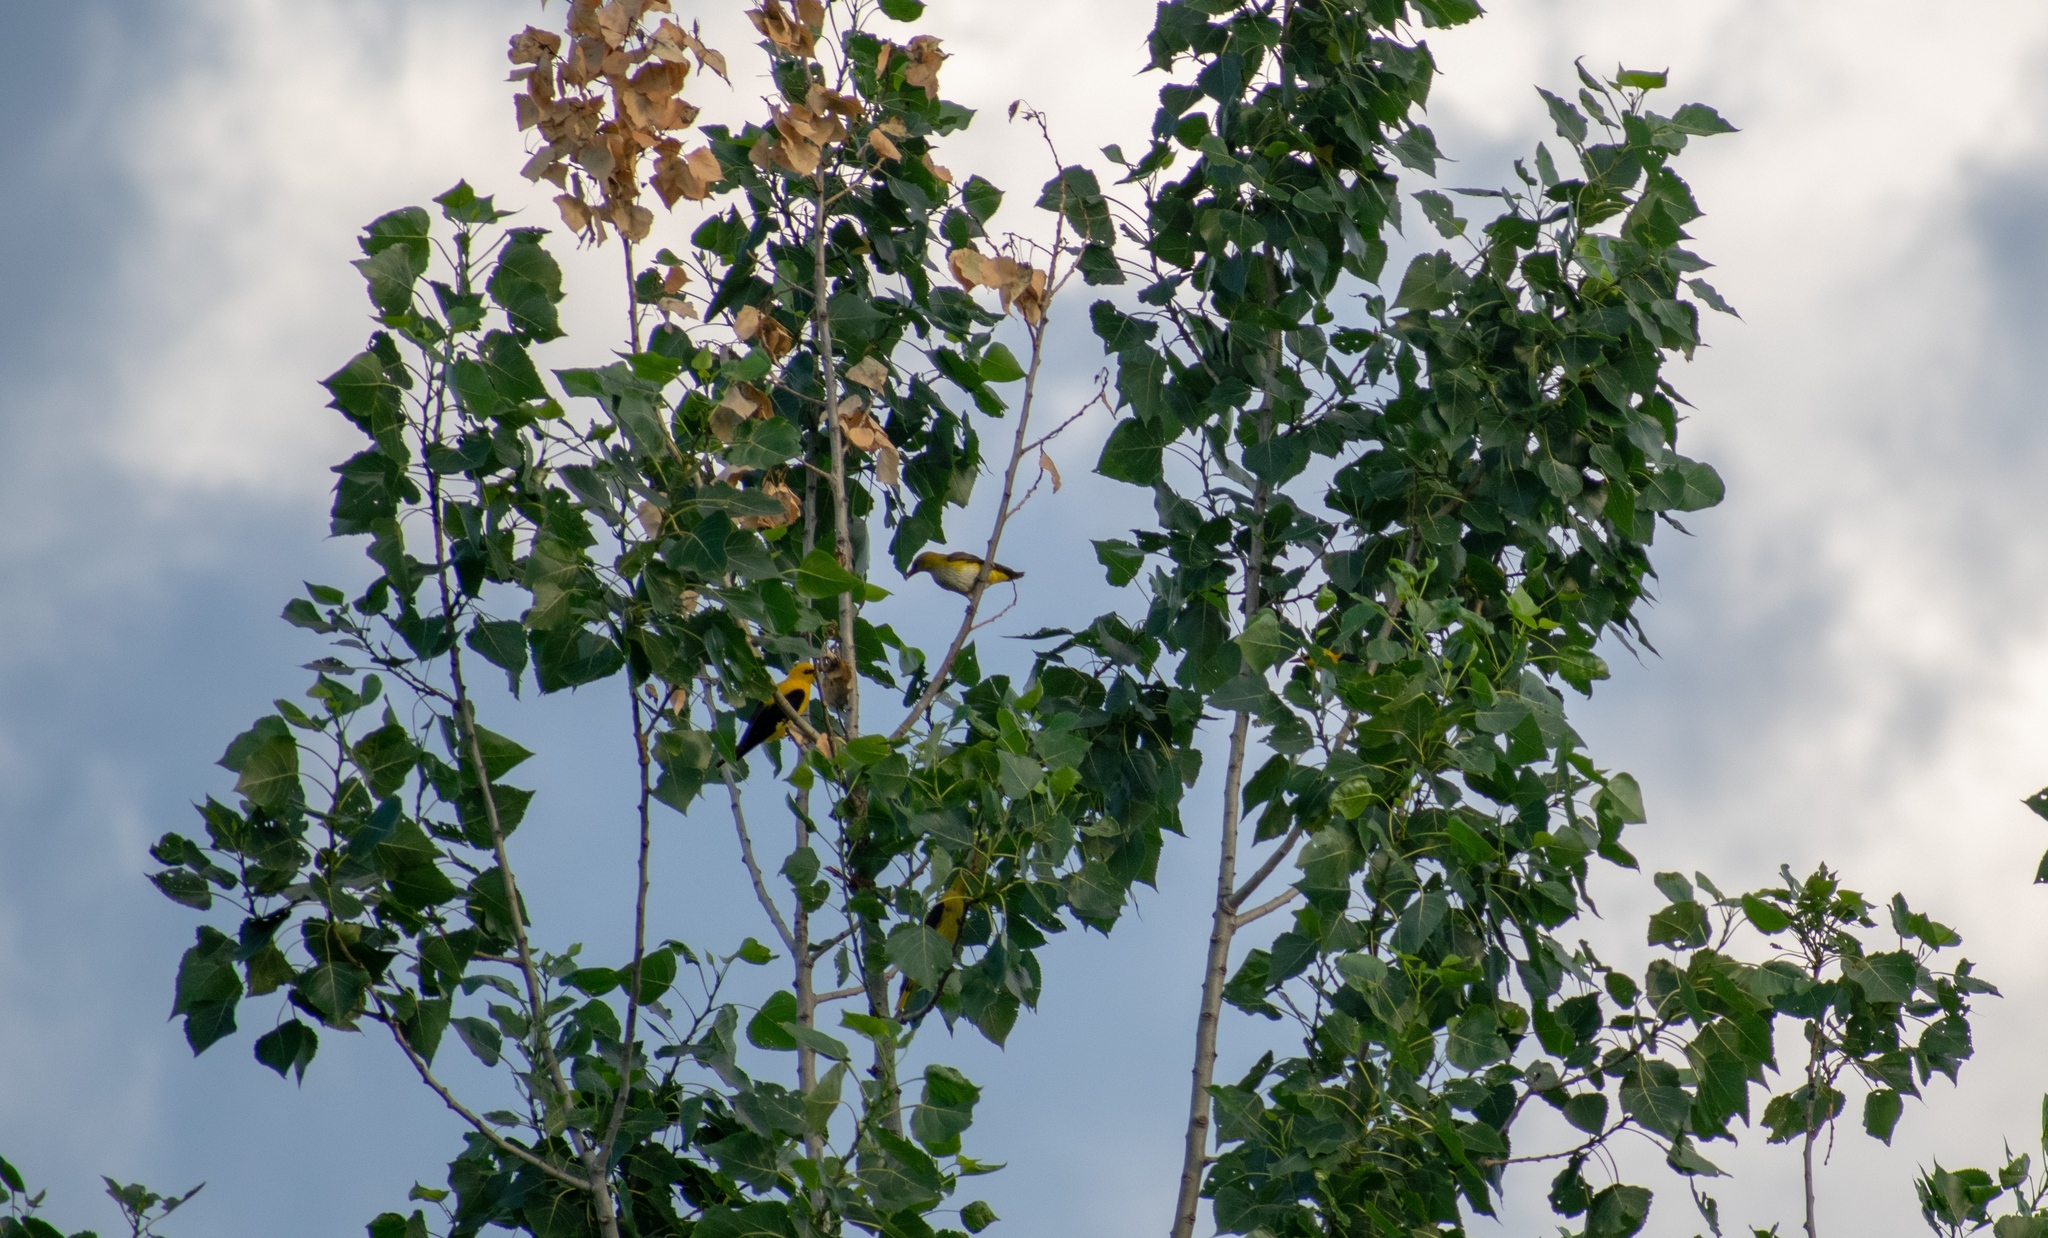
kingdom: Animalia
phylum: Chordata
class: Aves
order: Passeriformes
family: Oriolidae
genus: Oriolus
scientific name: Oriolus oriolus
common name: Eurasian golden oriole
